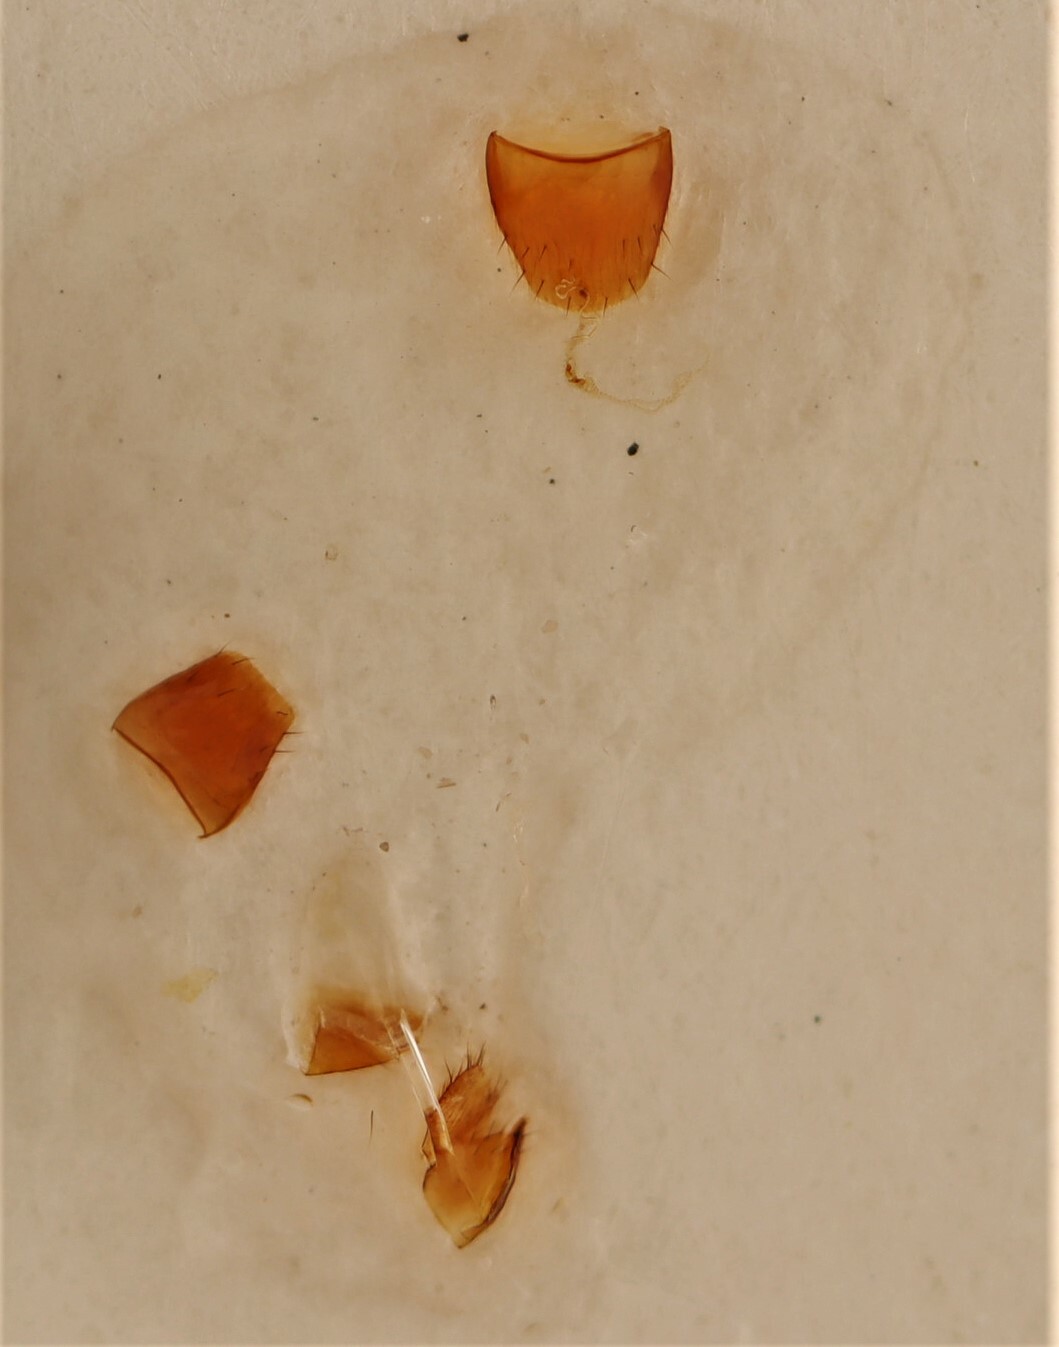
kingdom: Animalia
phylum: Arthropoda
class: Insecta
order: Coleoptera
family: Staphylinidae
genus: Dexiogyia
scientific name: Dexiogyia angustiventris
